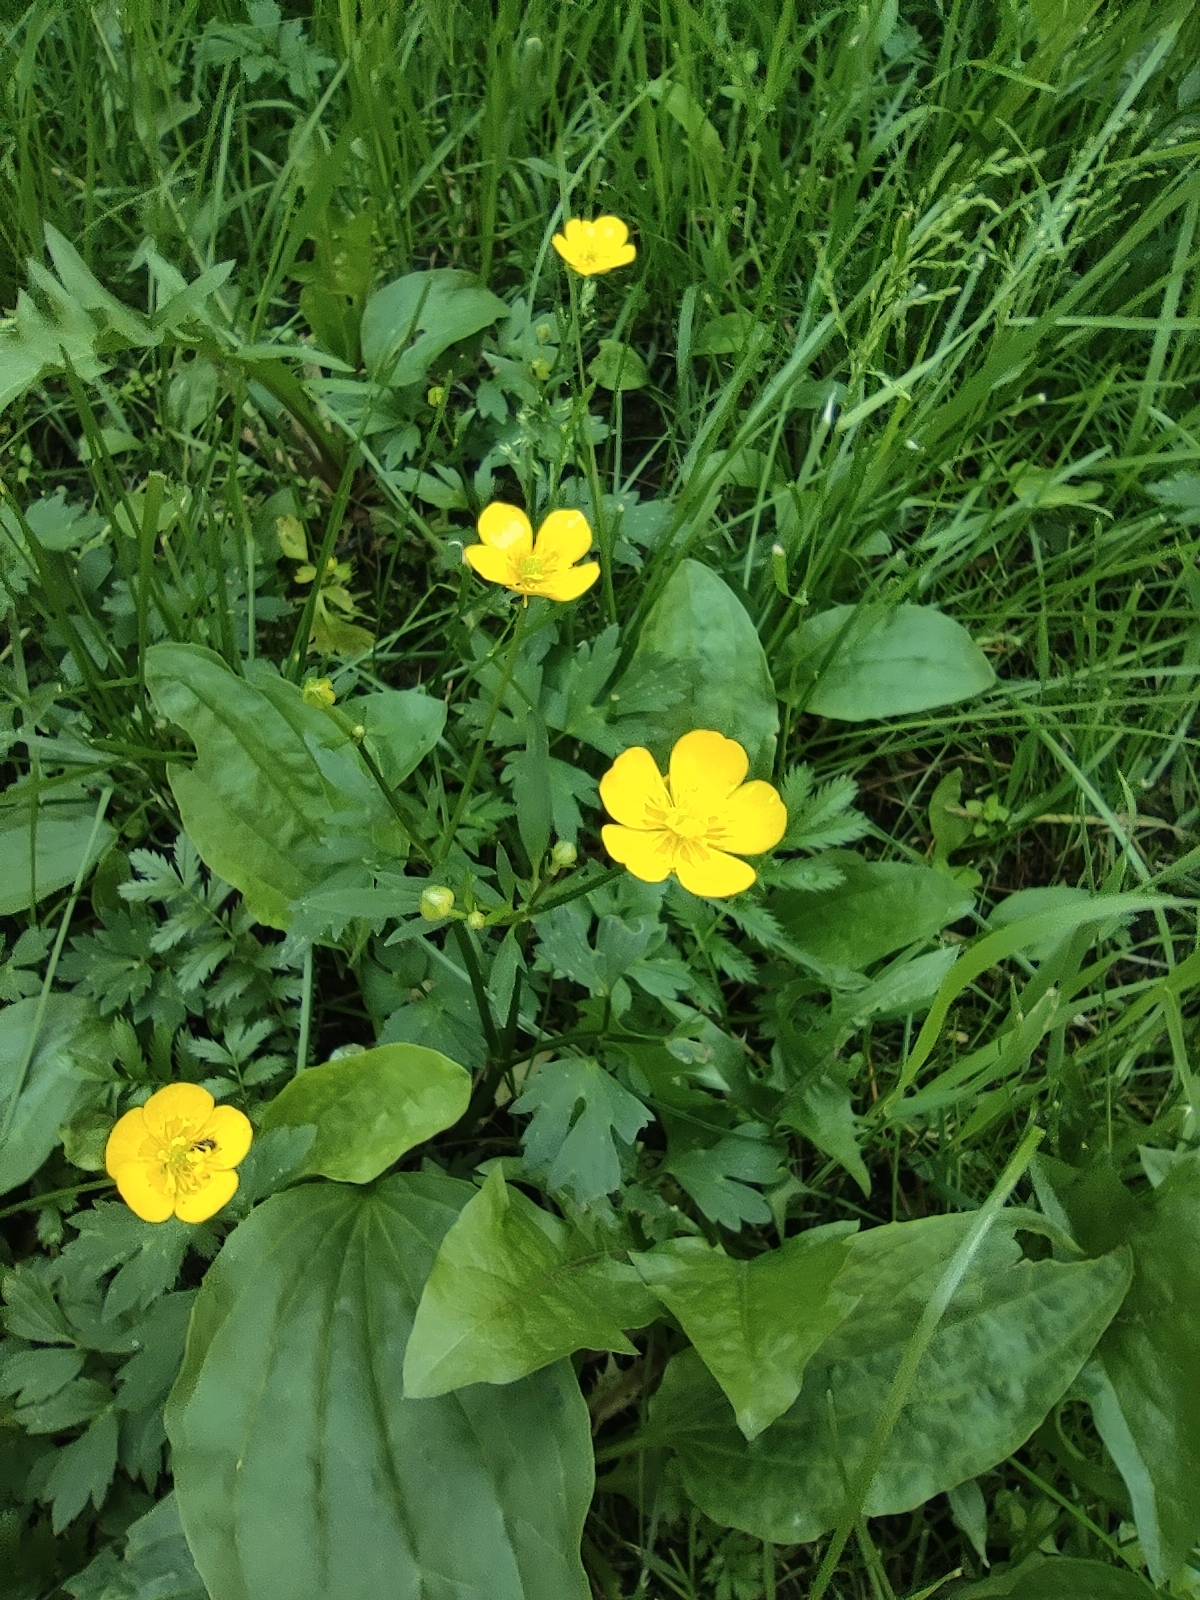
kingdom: Plantae
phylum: Tracheophyta
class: Magnoliopsida
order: Ranunculales
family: Ranunculaceae
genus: Ranunculus
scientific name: Ranunculus repens
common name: Creeping buttercup
